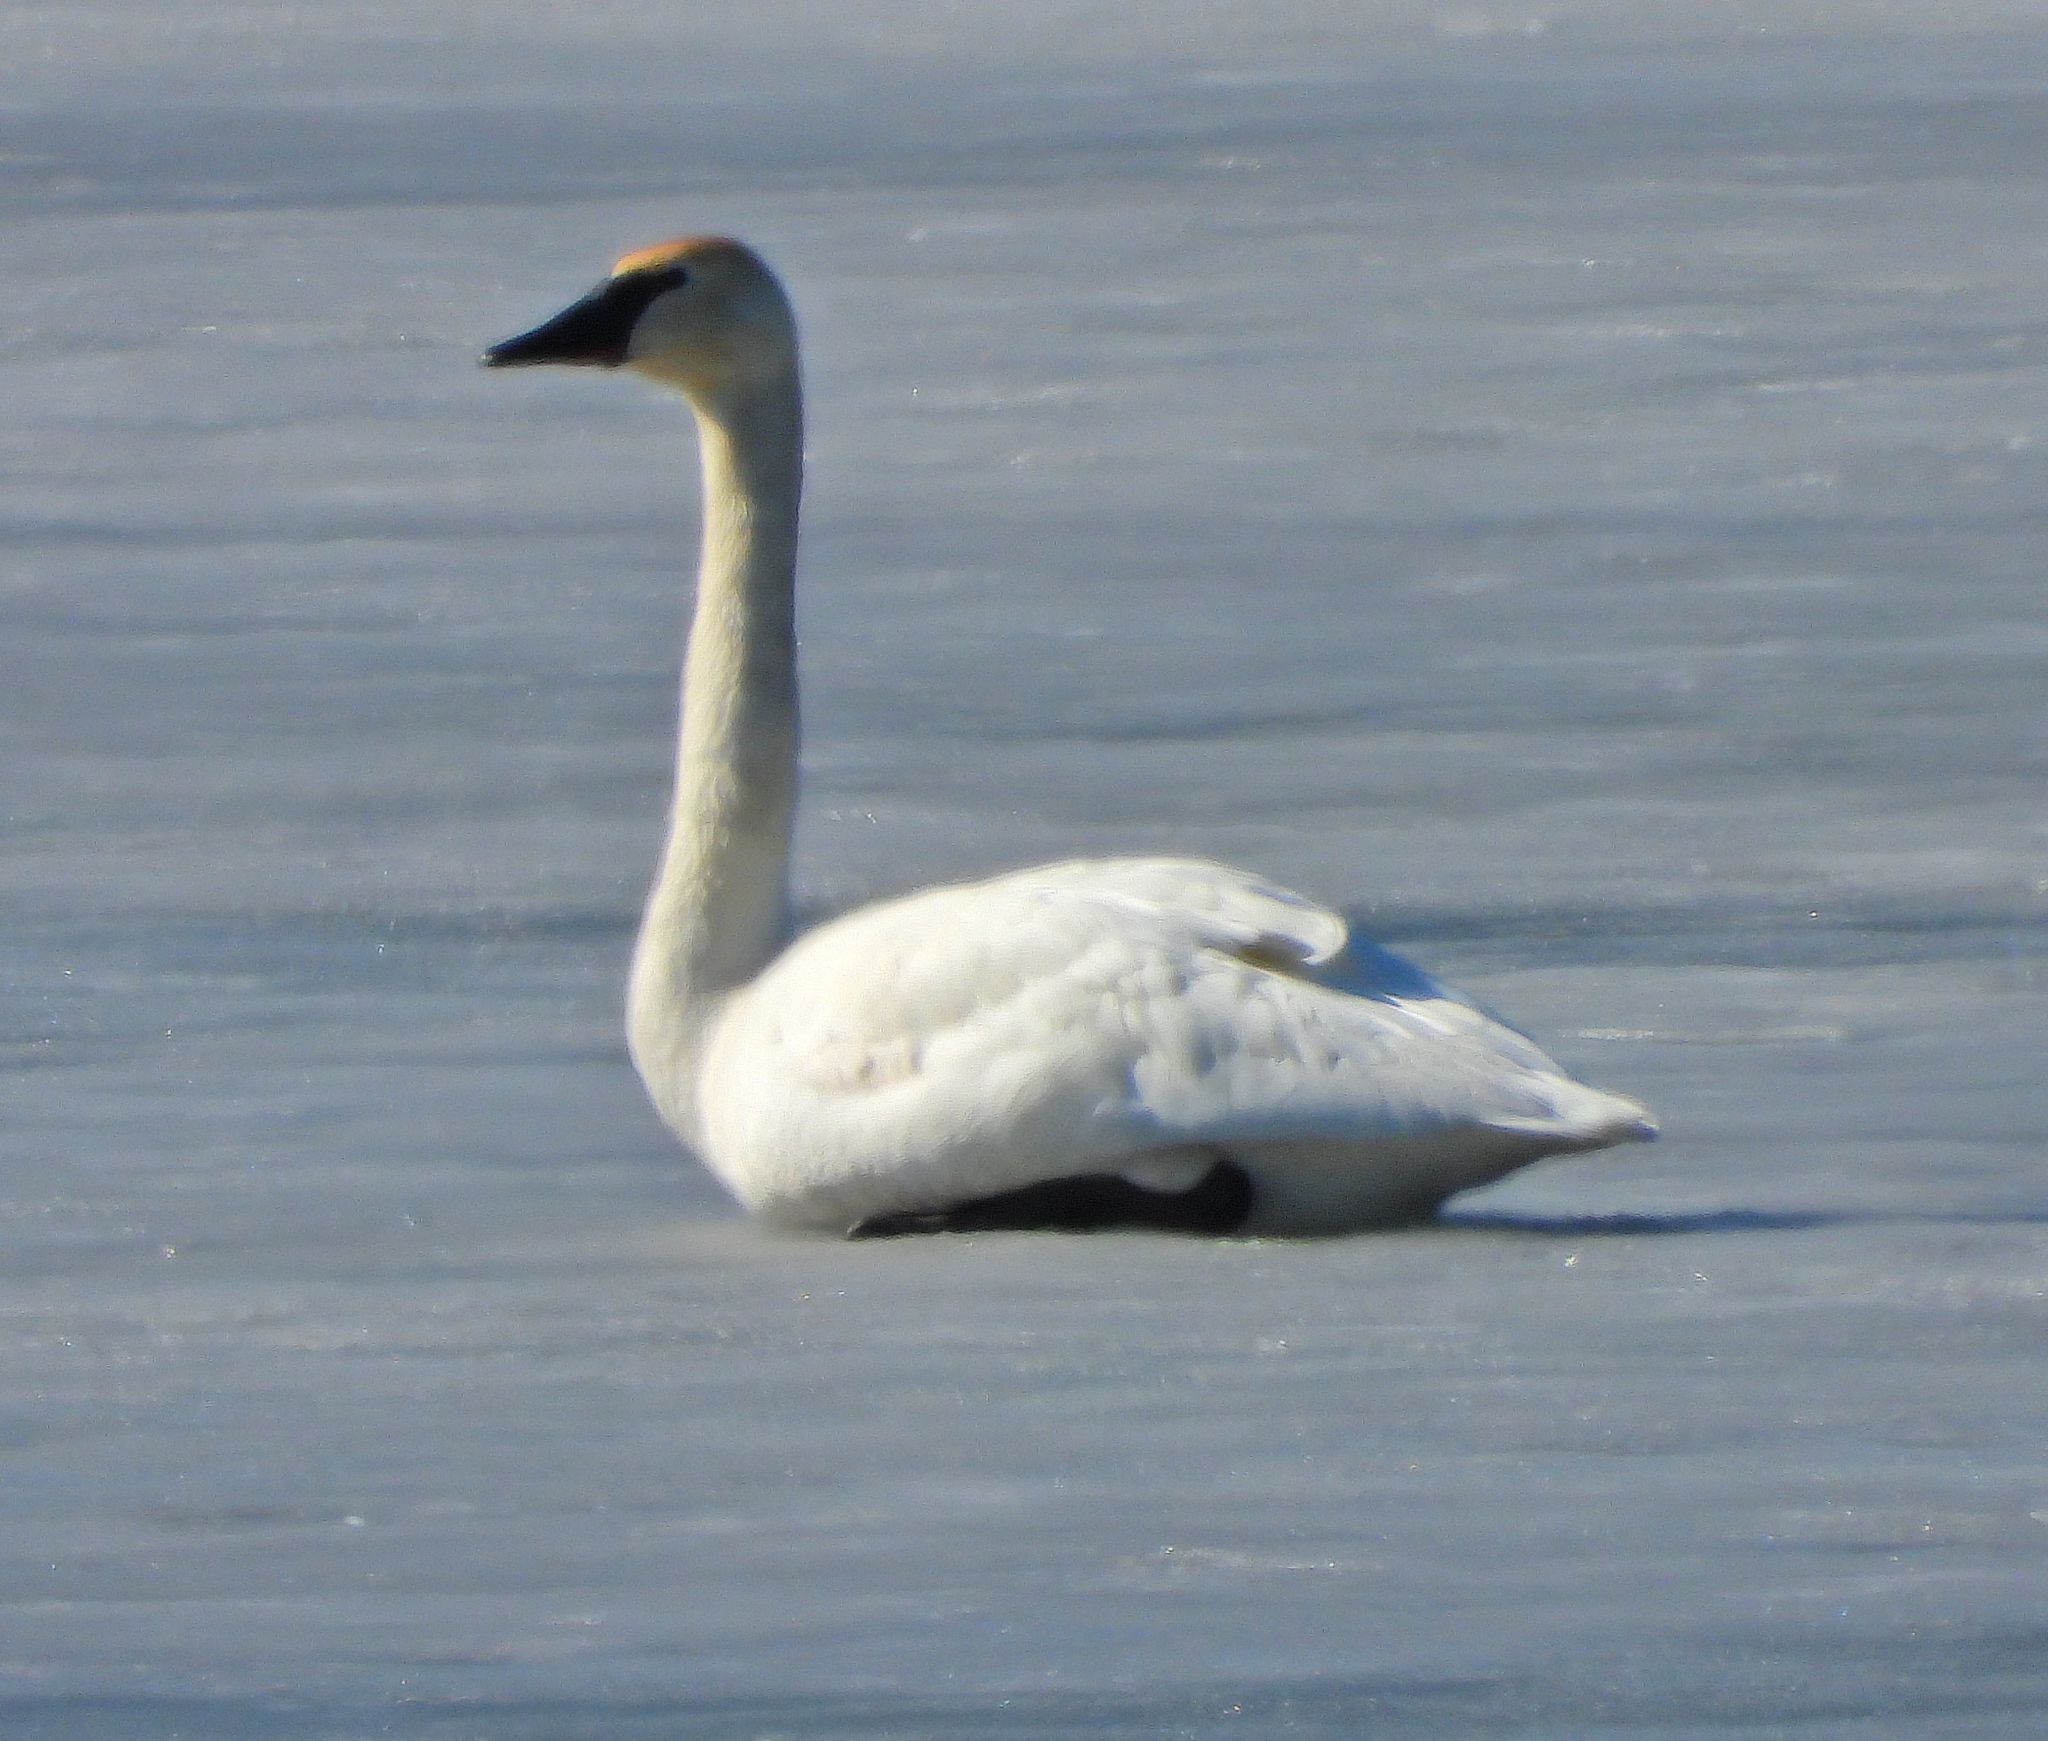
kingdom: Animalia
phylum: Chordata
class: Aves
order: Anseriformes
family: Anatidae
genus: Cygnus
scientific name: Cygnus buccinator
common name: Trumpeter swan
